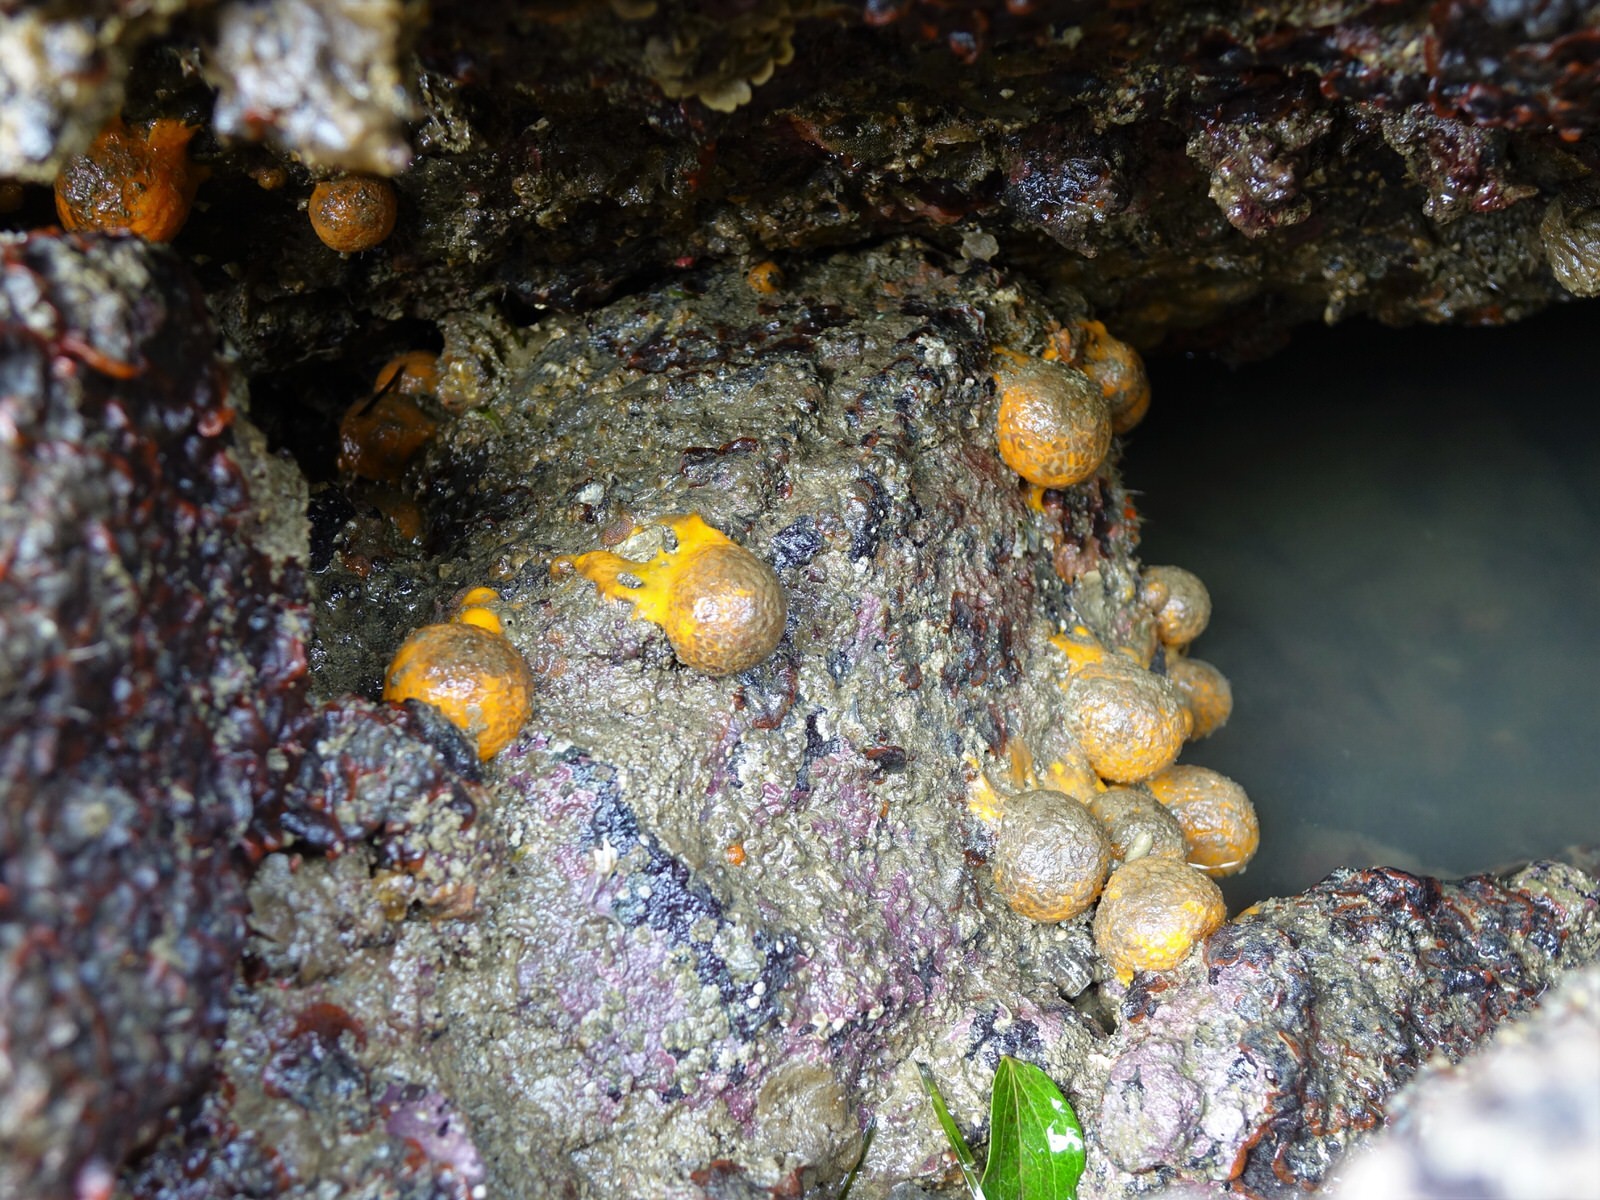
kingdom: Animalia
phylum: Porifera
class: Demospongiae
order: Tethyida
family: Tethyidae
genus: Tethya
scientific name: Tethya burtoni
